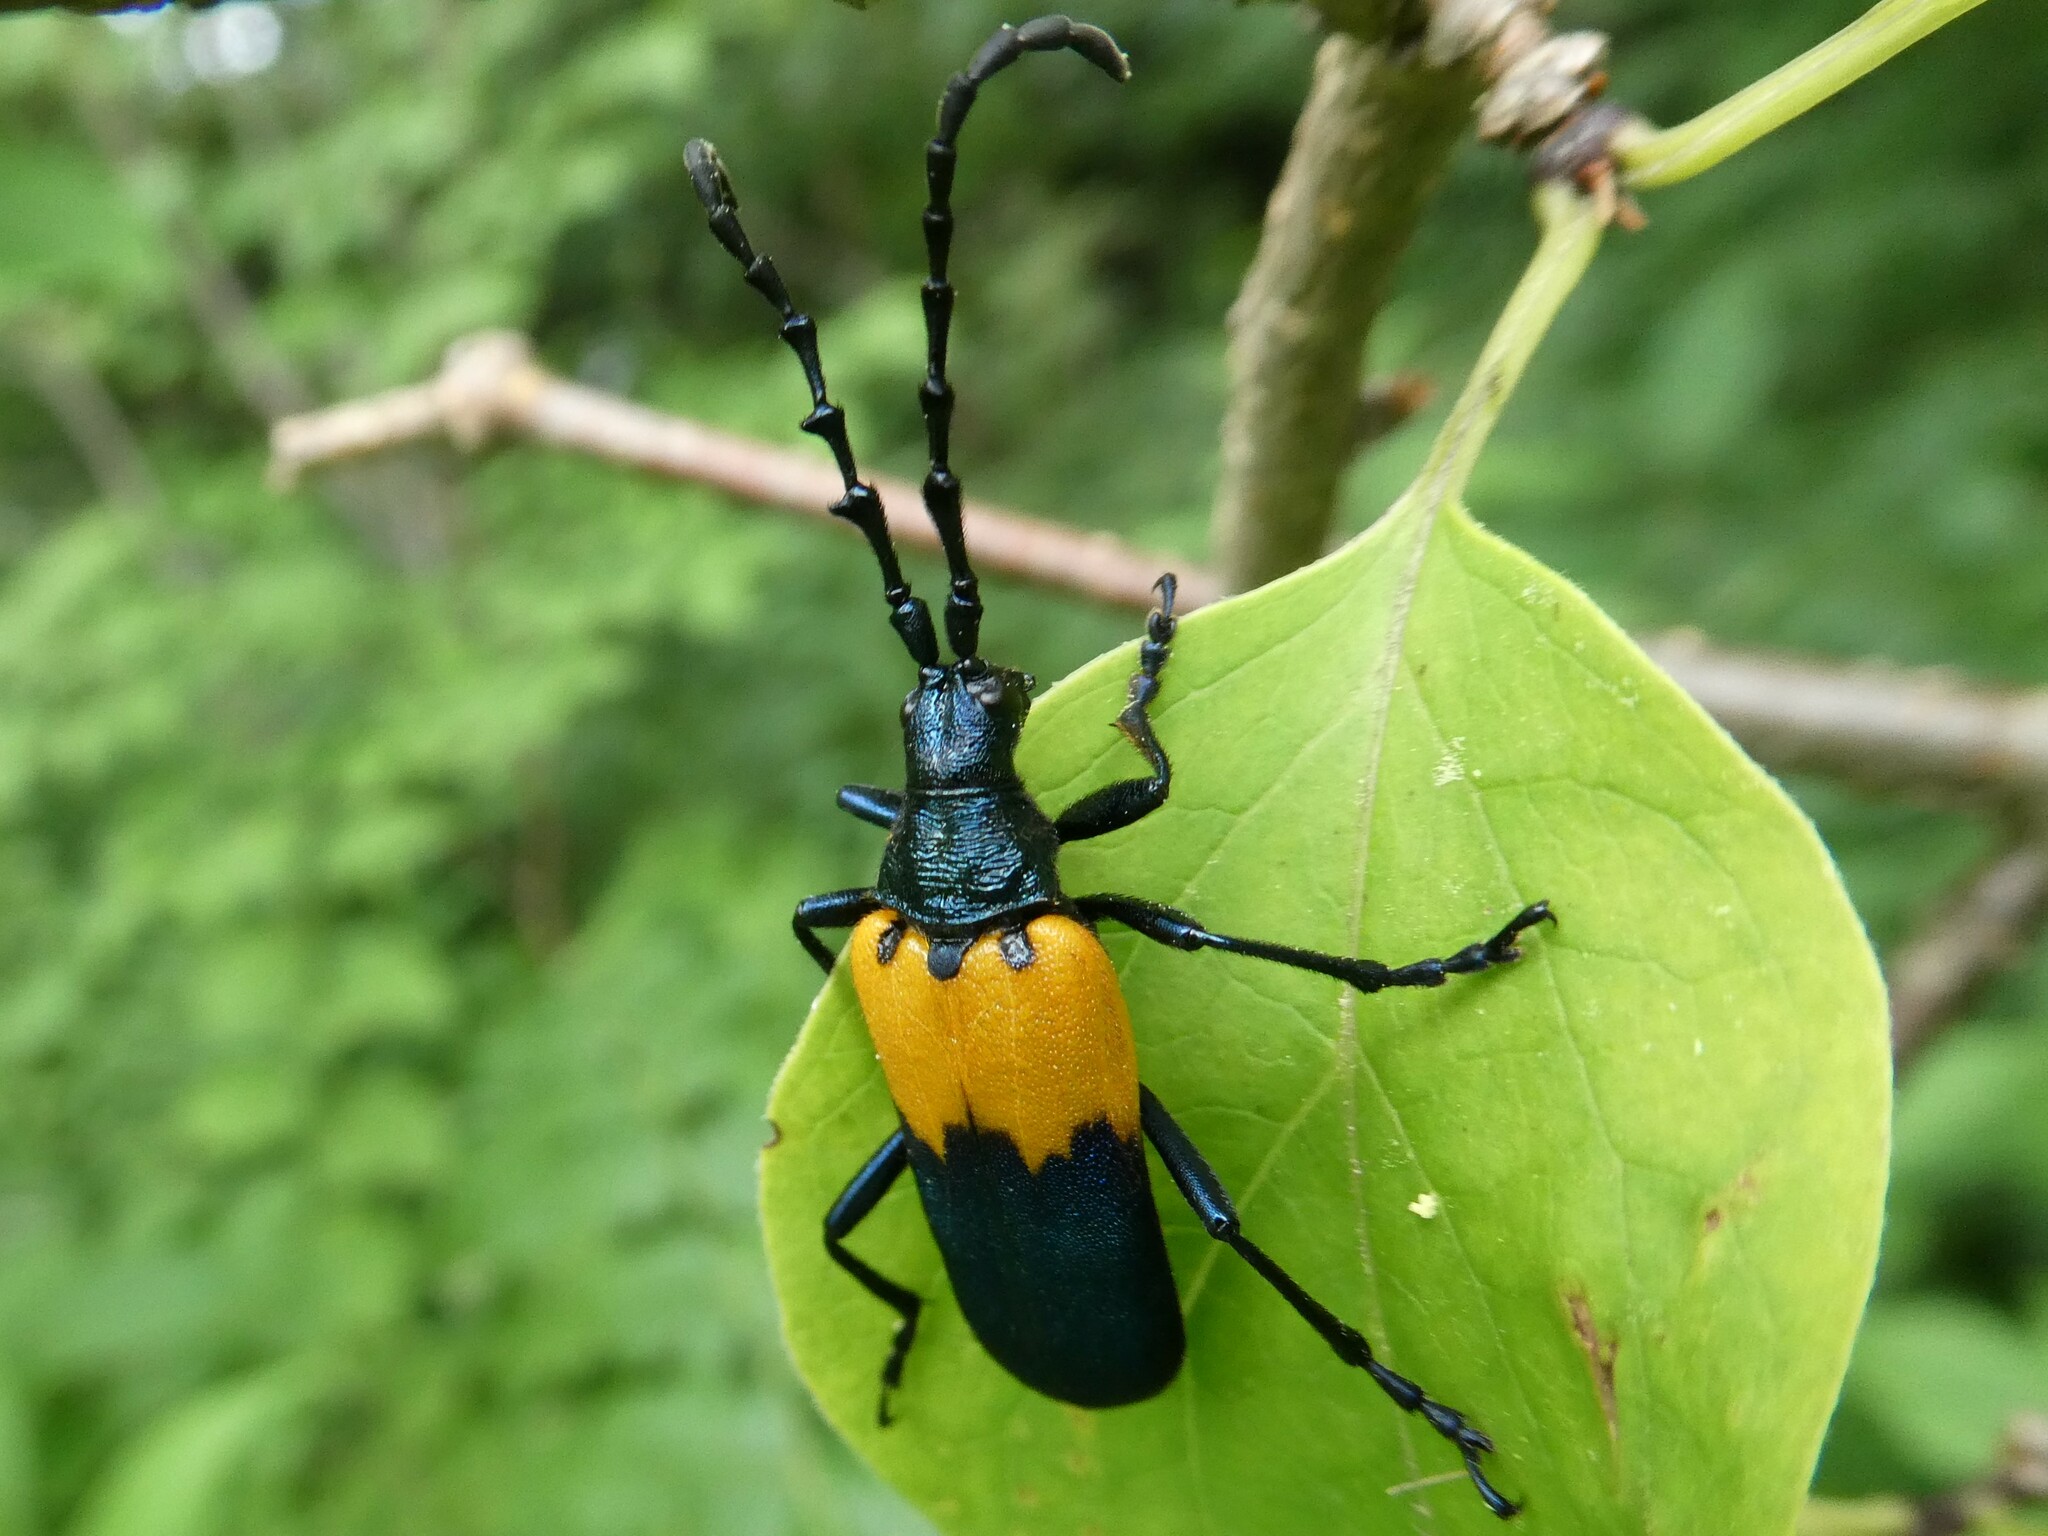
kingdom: Animalia
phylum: Arthropoda
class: Insecta
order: Coleoptera
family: Cerambycidae
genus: Desmocerus
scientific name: Desmocerus palliatus
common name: Eastern elderberry borer
